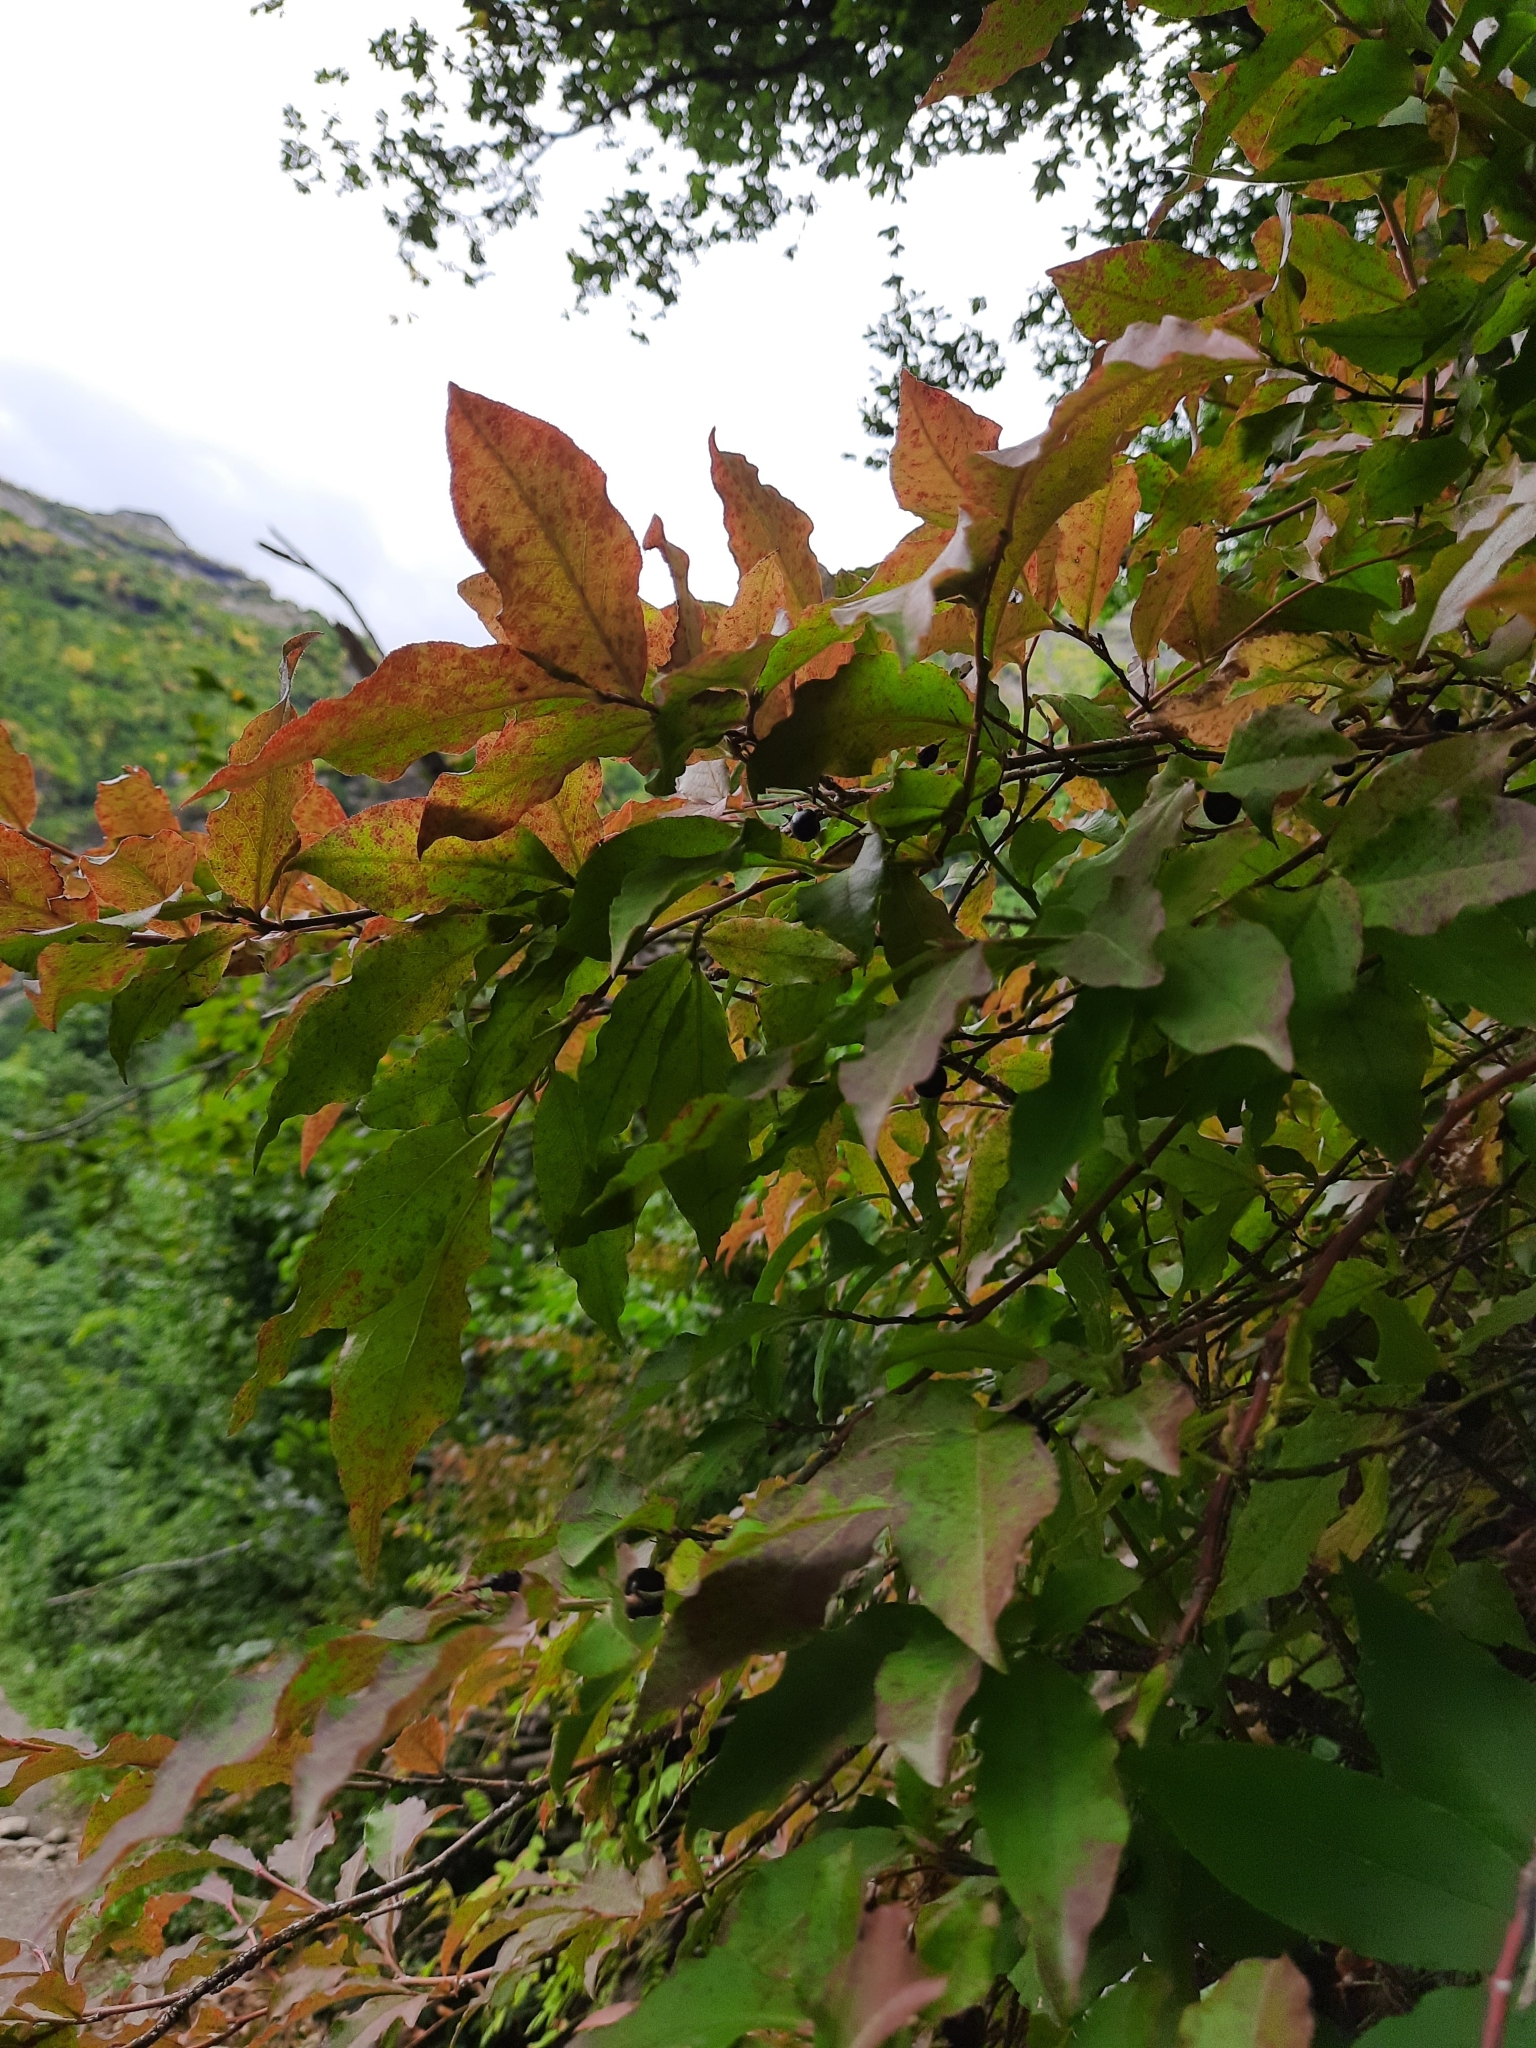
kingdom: Plantae
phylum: Tracheophyta
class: Magnoliopsida
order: Ericales
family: Ericaceae
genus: Vaccinium
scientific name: Vaccinium arctostaphylos
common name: Caucasian whortleberry
